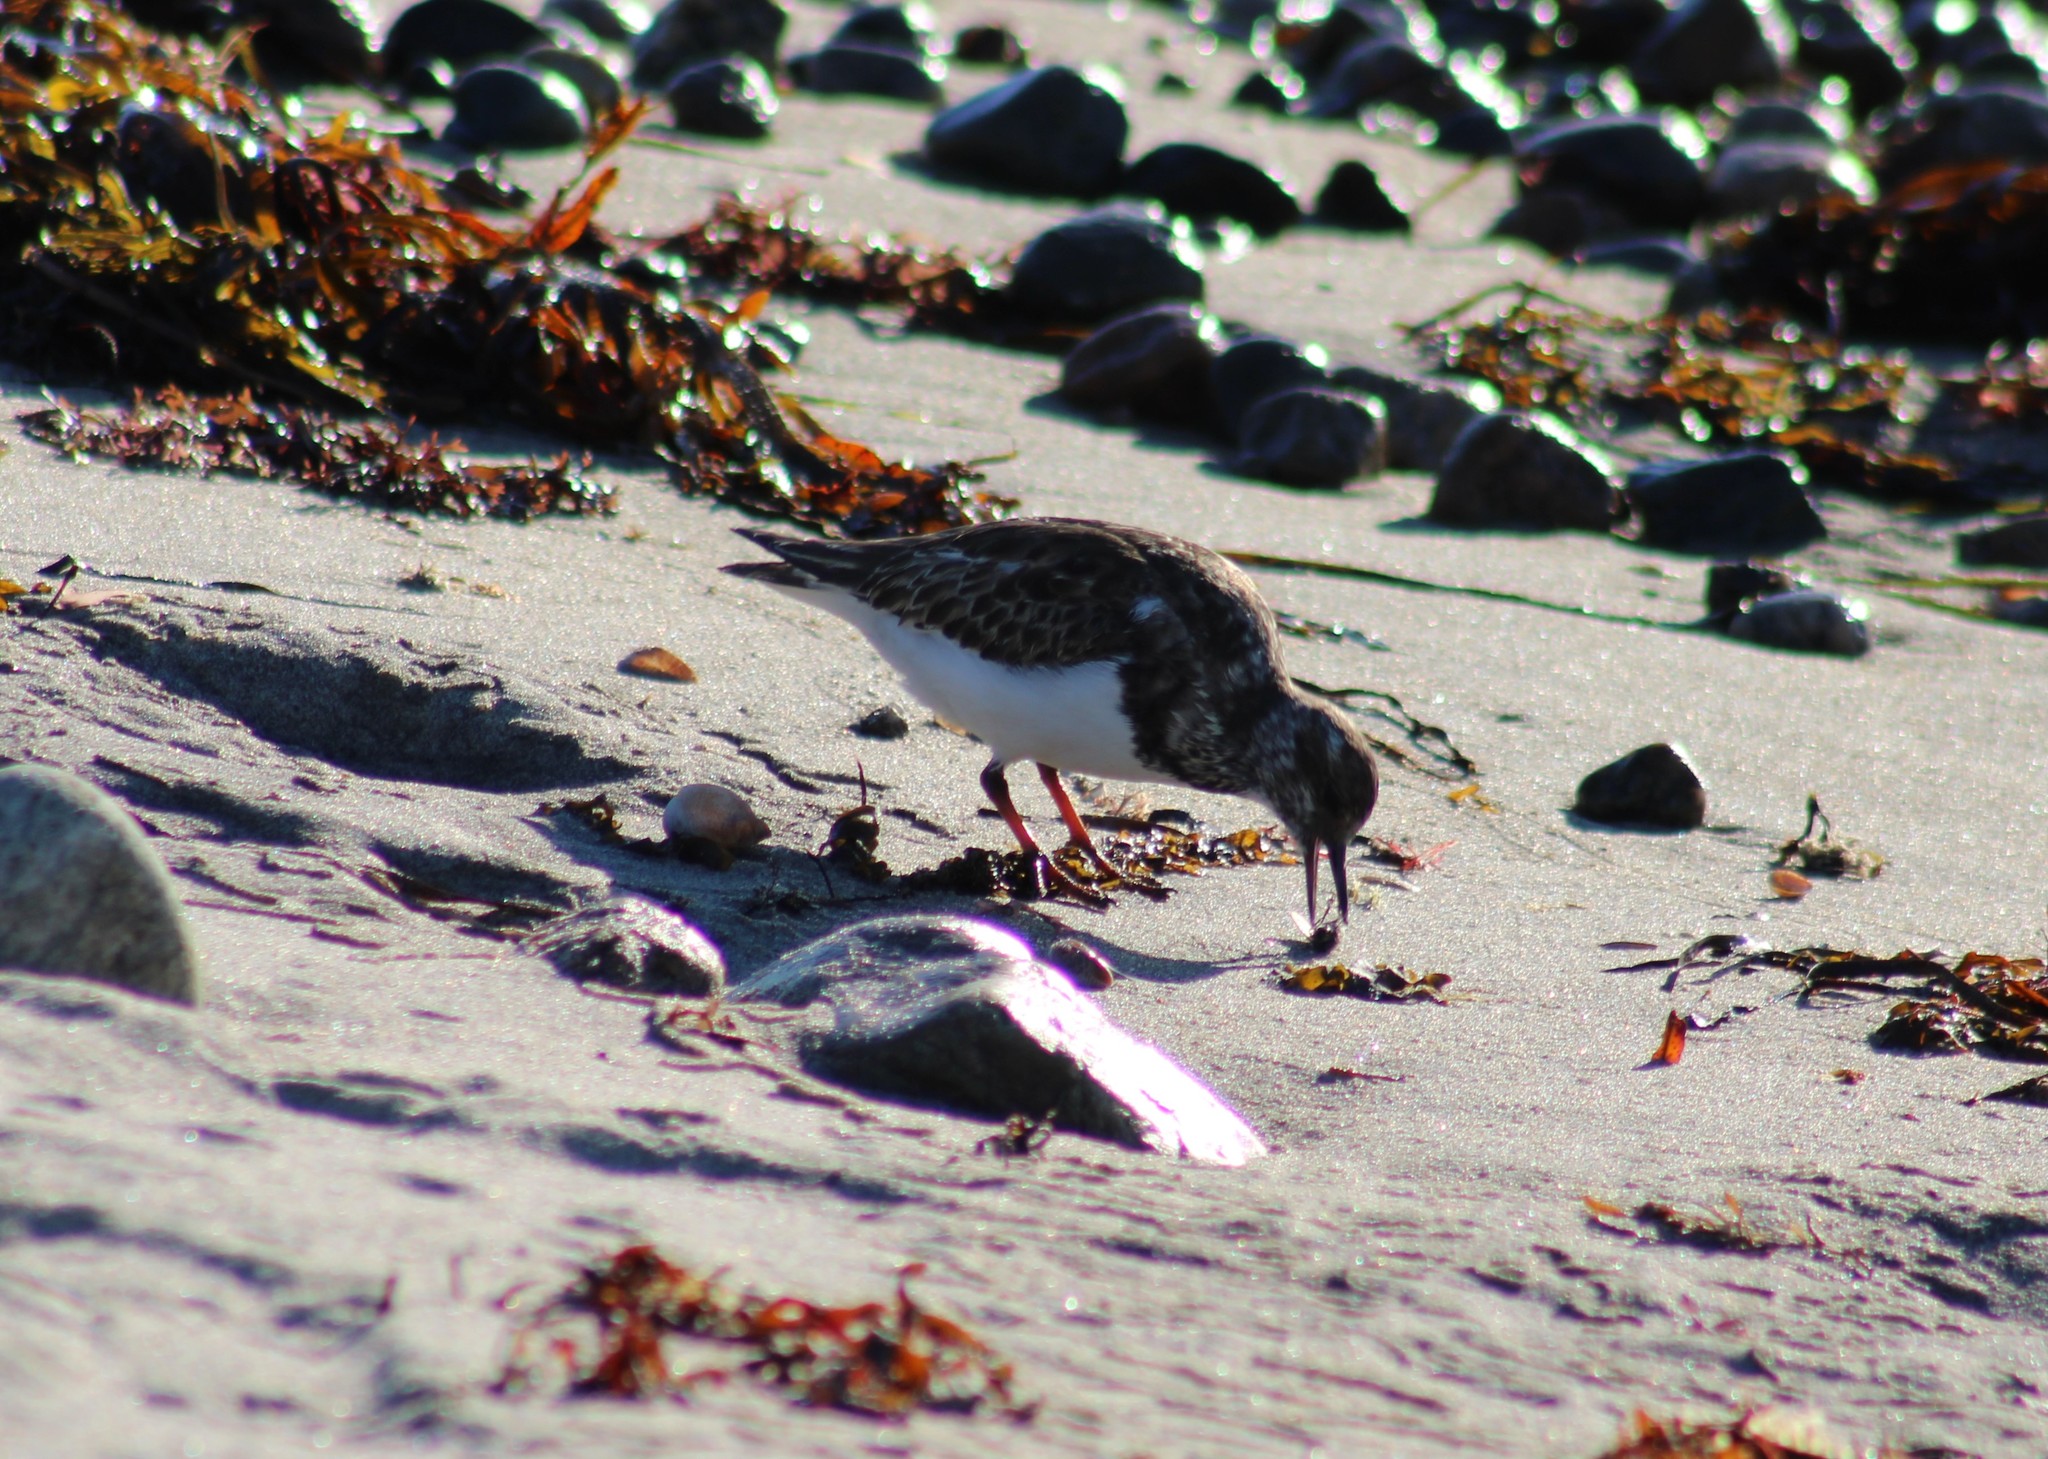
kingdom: Animalia
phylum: Chordata
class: Aves
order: Charadriiformes
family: Scolopacidae
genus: Arenaria
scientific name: Arenaria interpres
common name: Ruddy turnstone
